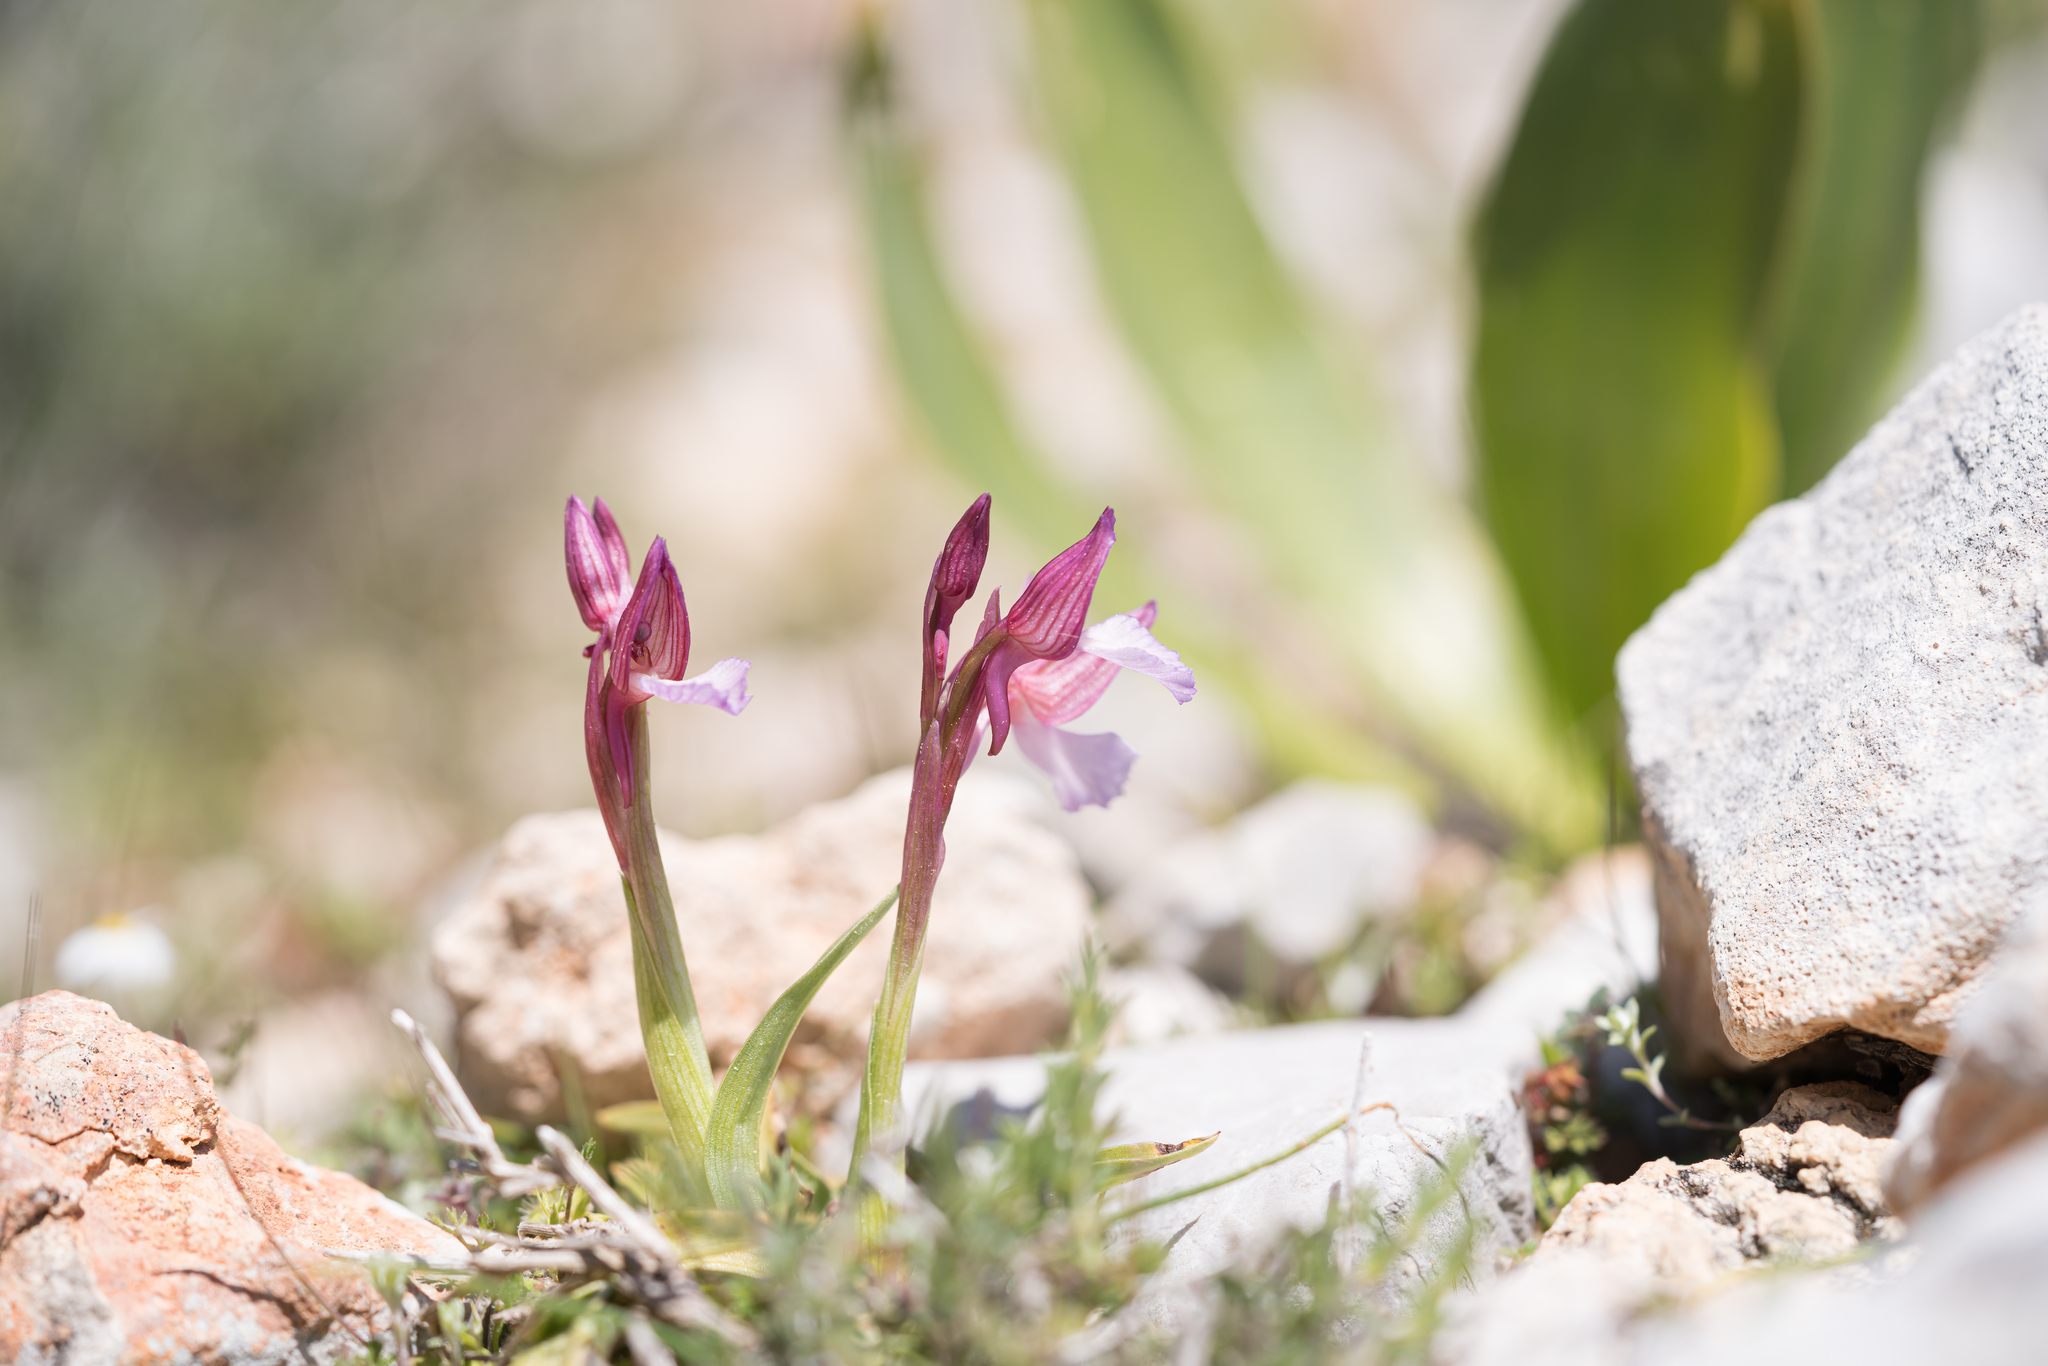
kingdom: Plantae
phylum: Tracheophyta
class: Liliopsida
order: Asparagales
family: Orchidaceae
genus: Anacamptis
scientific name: Anacamptis papilionacea
